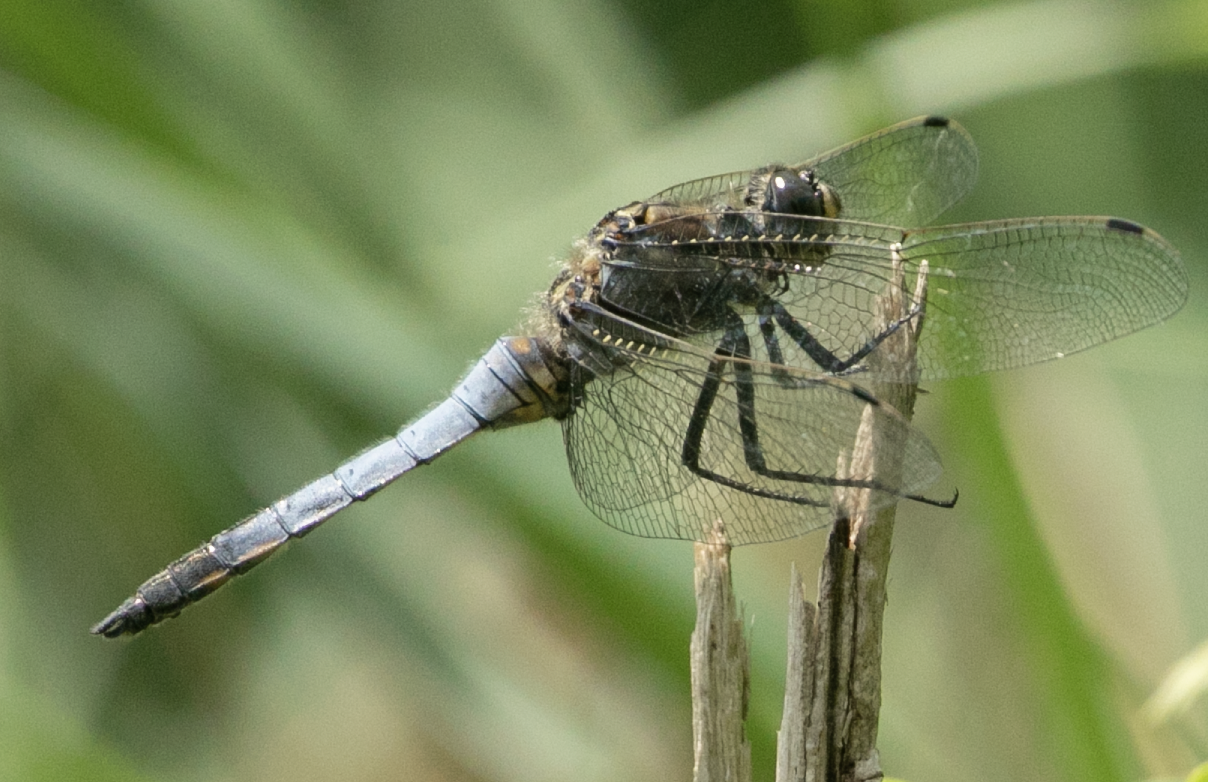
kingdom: Animalia
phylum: Arthropoda
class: Insecta
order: Odonata
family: Libellulidae
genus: Orthetrum
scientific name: Orthetrum cancellatum
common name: Black-tailed skimmer
